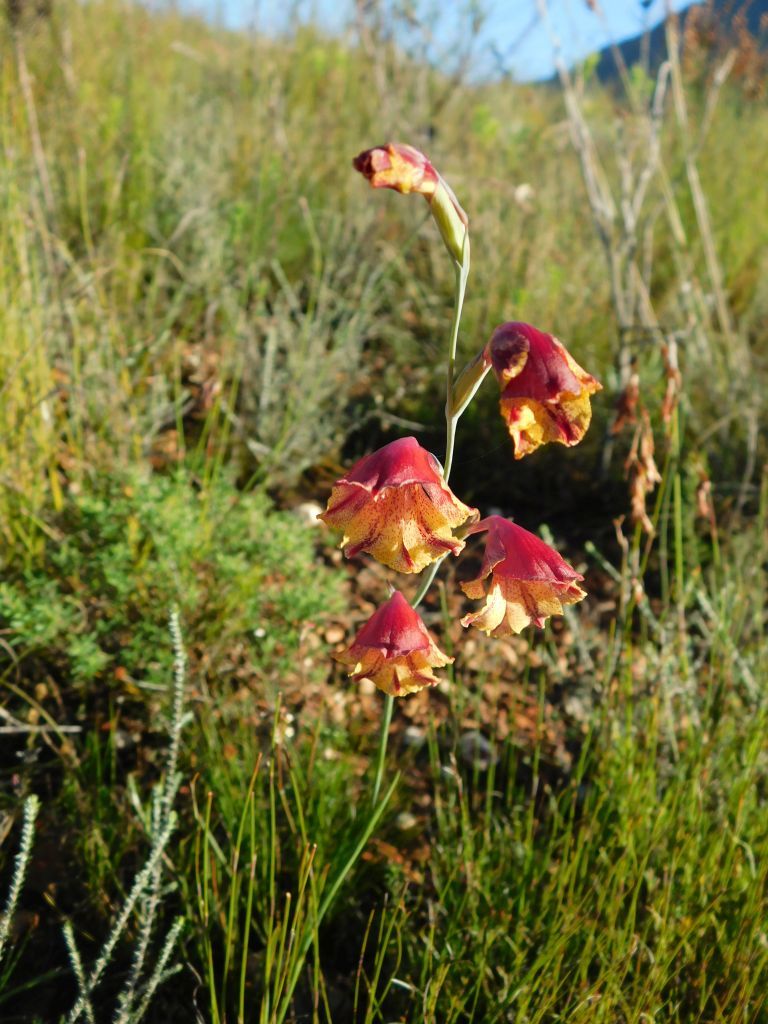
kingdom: Plantae
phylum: Tracheophyta
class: Liliopsida
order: Asparagales
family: Iridaceae
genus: Gladiolus
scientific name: Gladiolus guthriei
